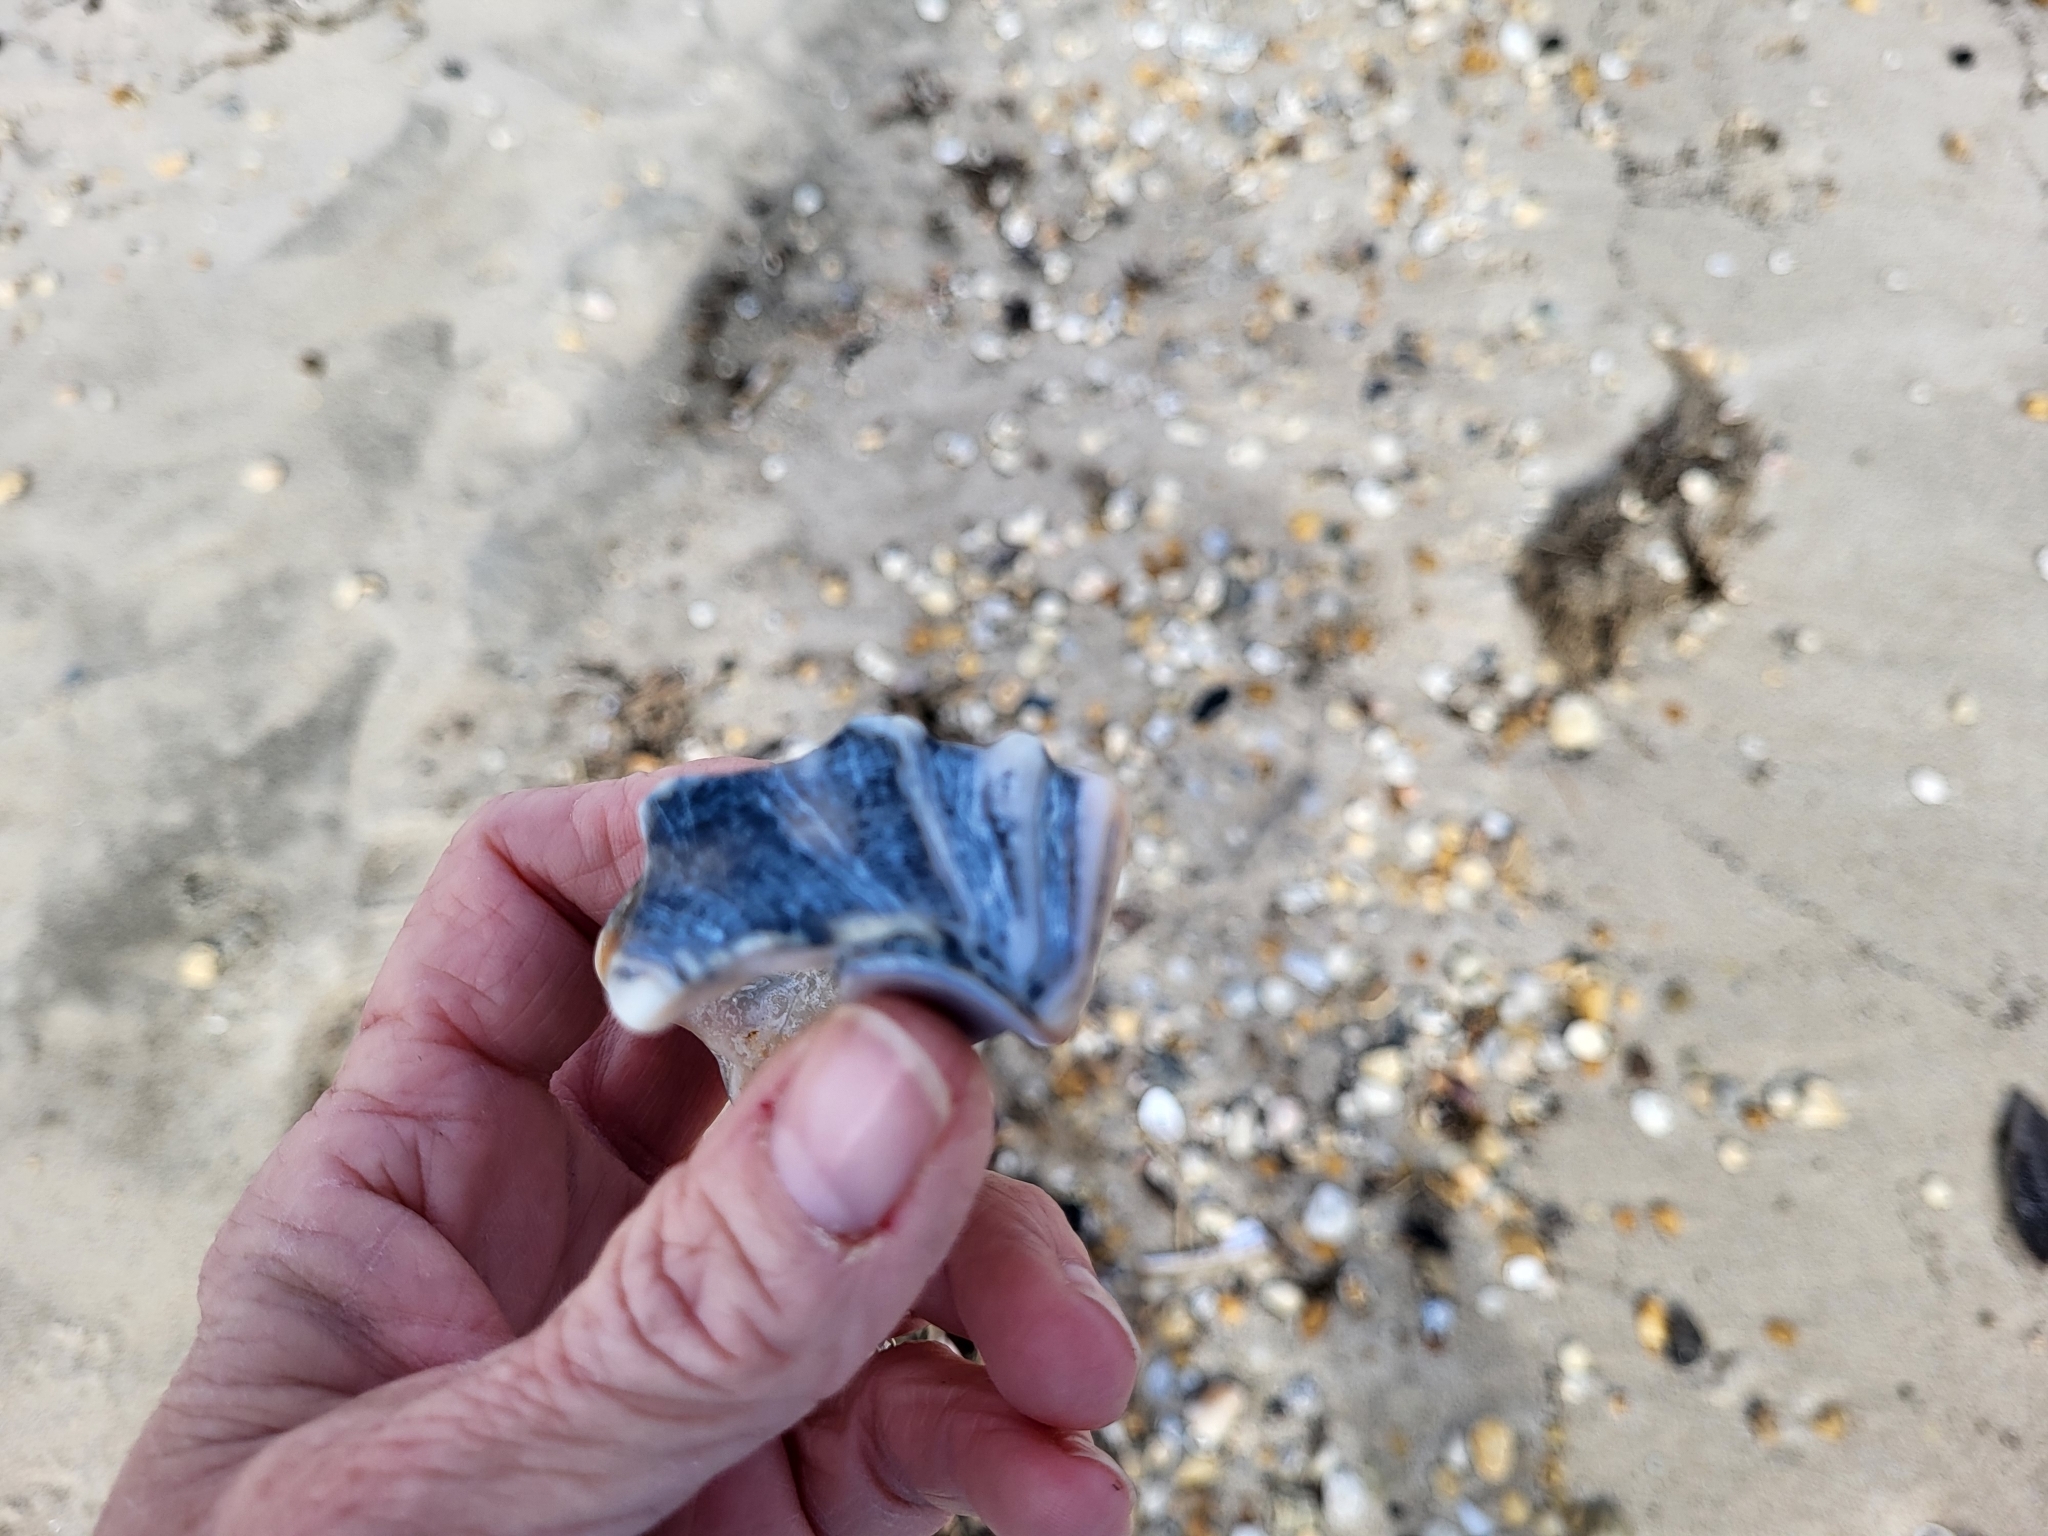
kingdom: Animalia
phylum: Mollusca
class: Gastropoda
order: Neogastropoda
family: Busyconidae
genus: Busycon
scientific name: Busycon carica
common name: Knobbed whelk
